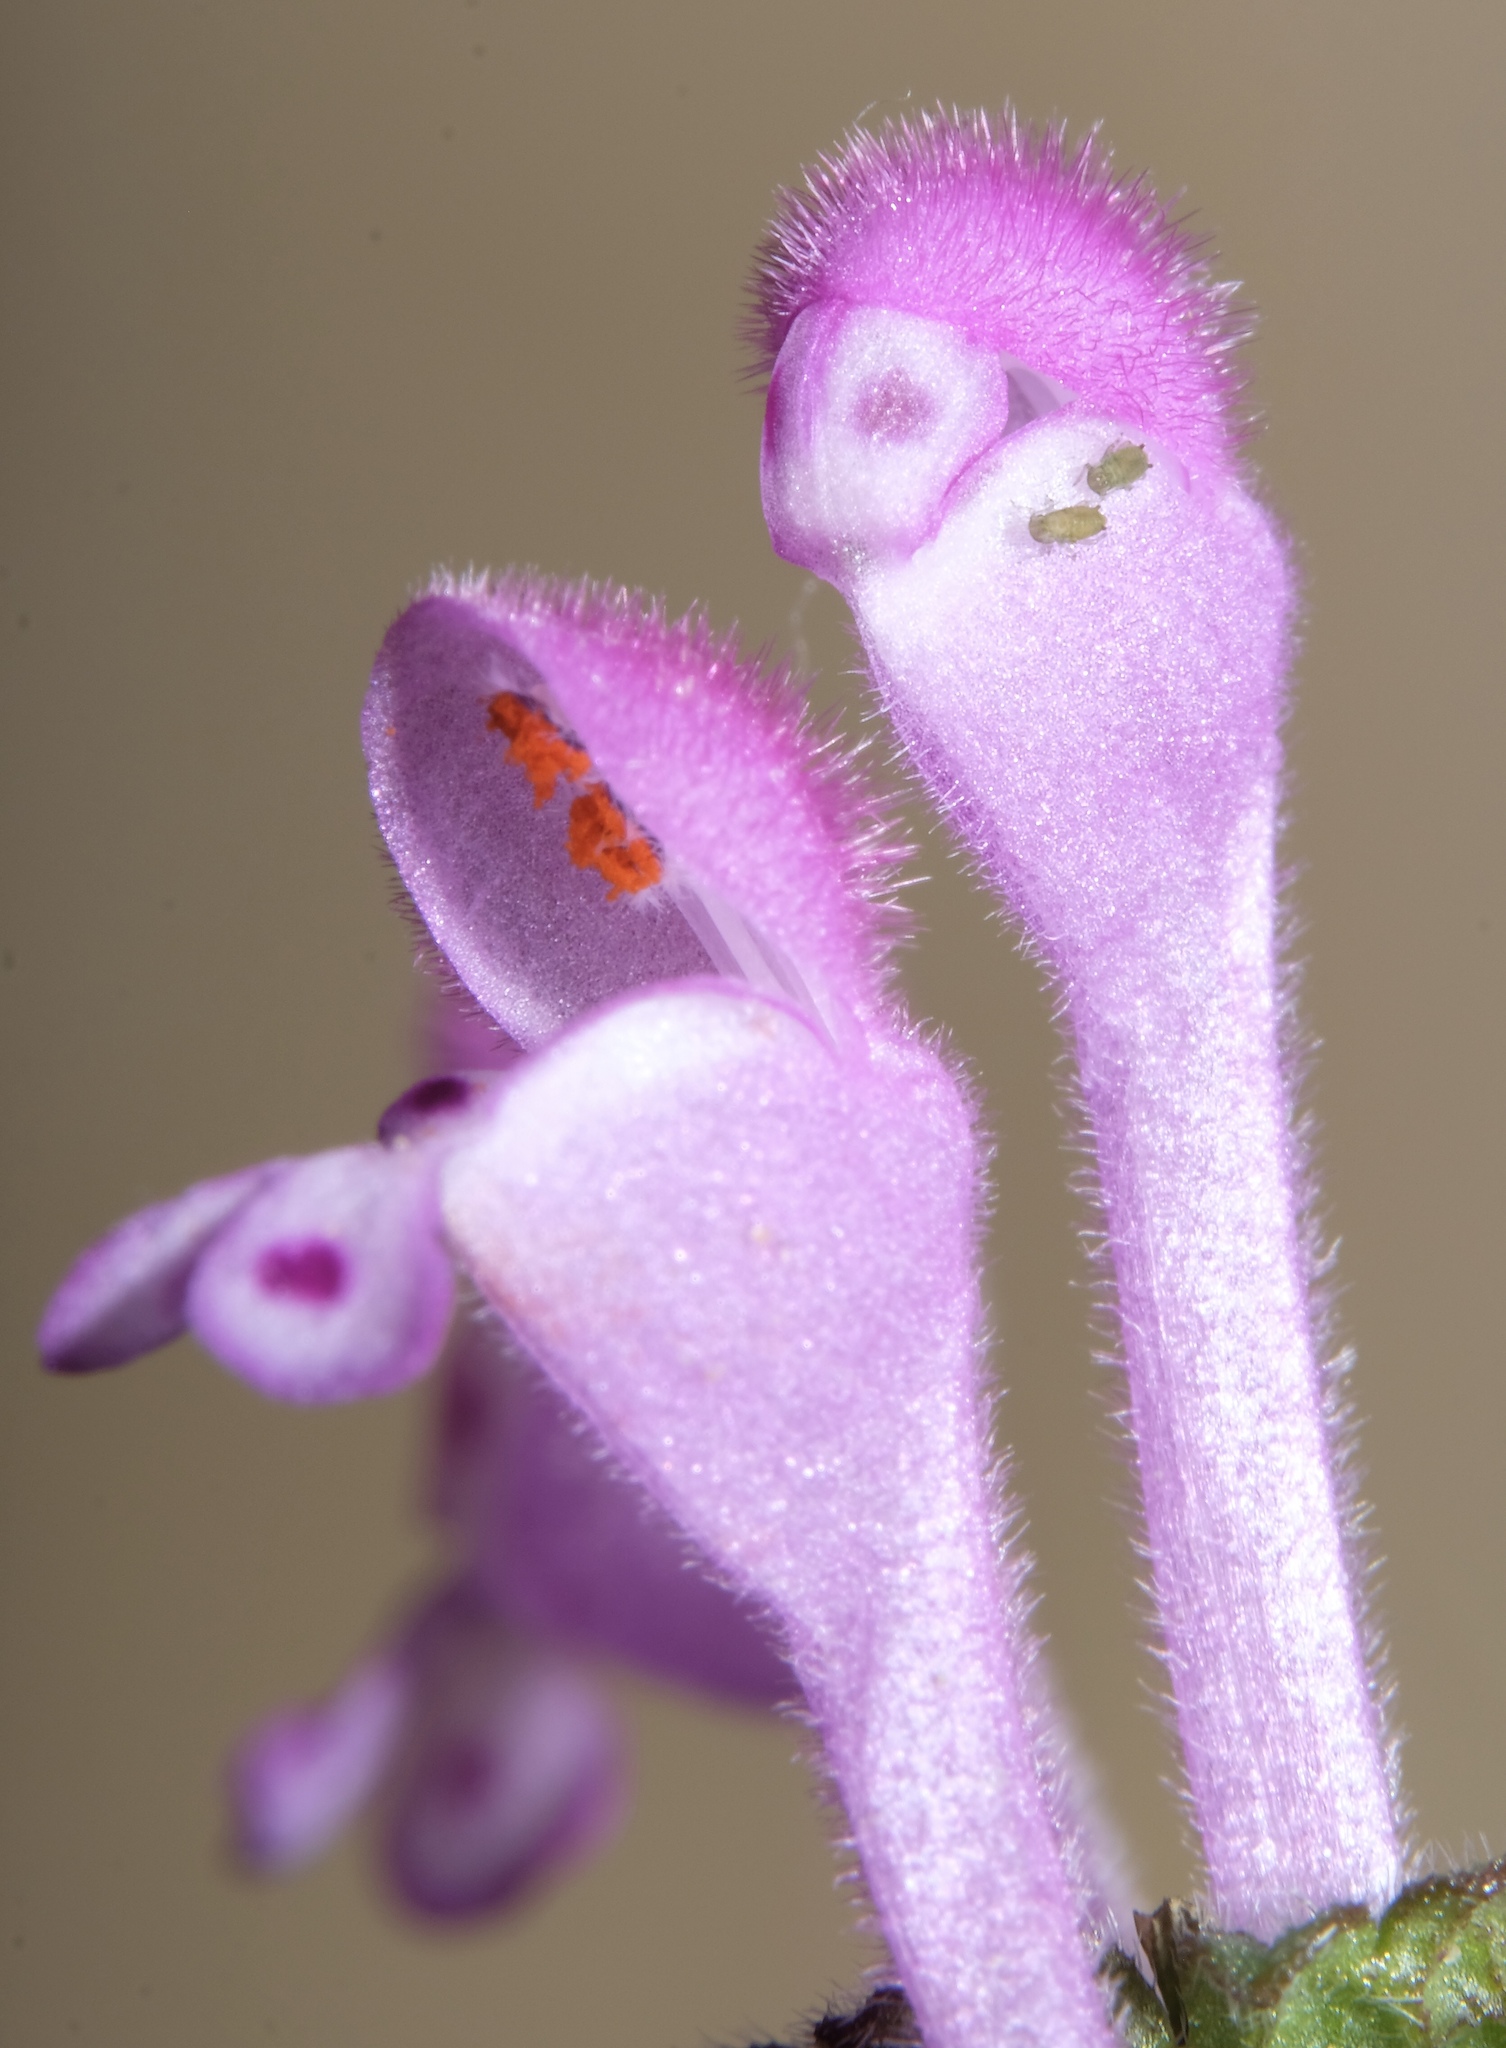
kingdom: Plantae
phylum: Tracheophyta
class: Magnoliopsida
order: Lamiales
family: Lamiaceae
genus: Lamium
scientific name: Lamium amplexicaule
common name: Henbit dead-nettle
